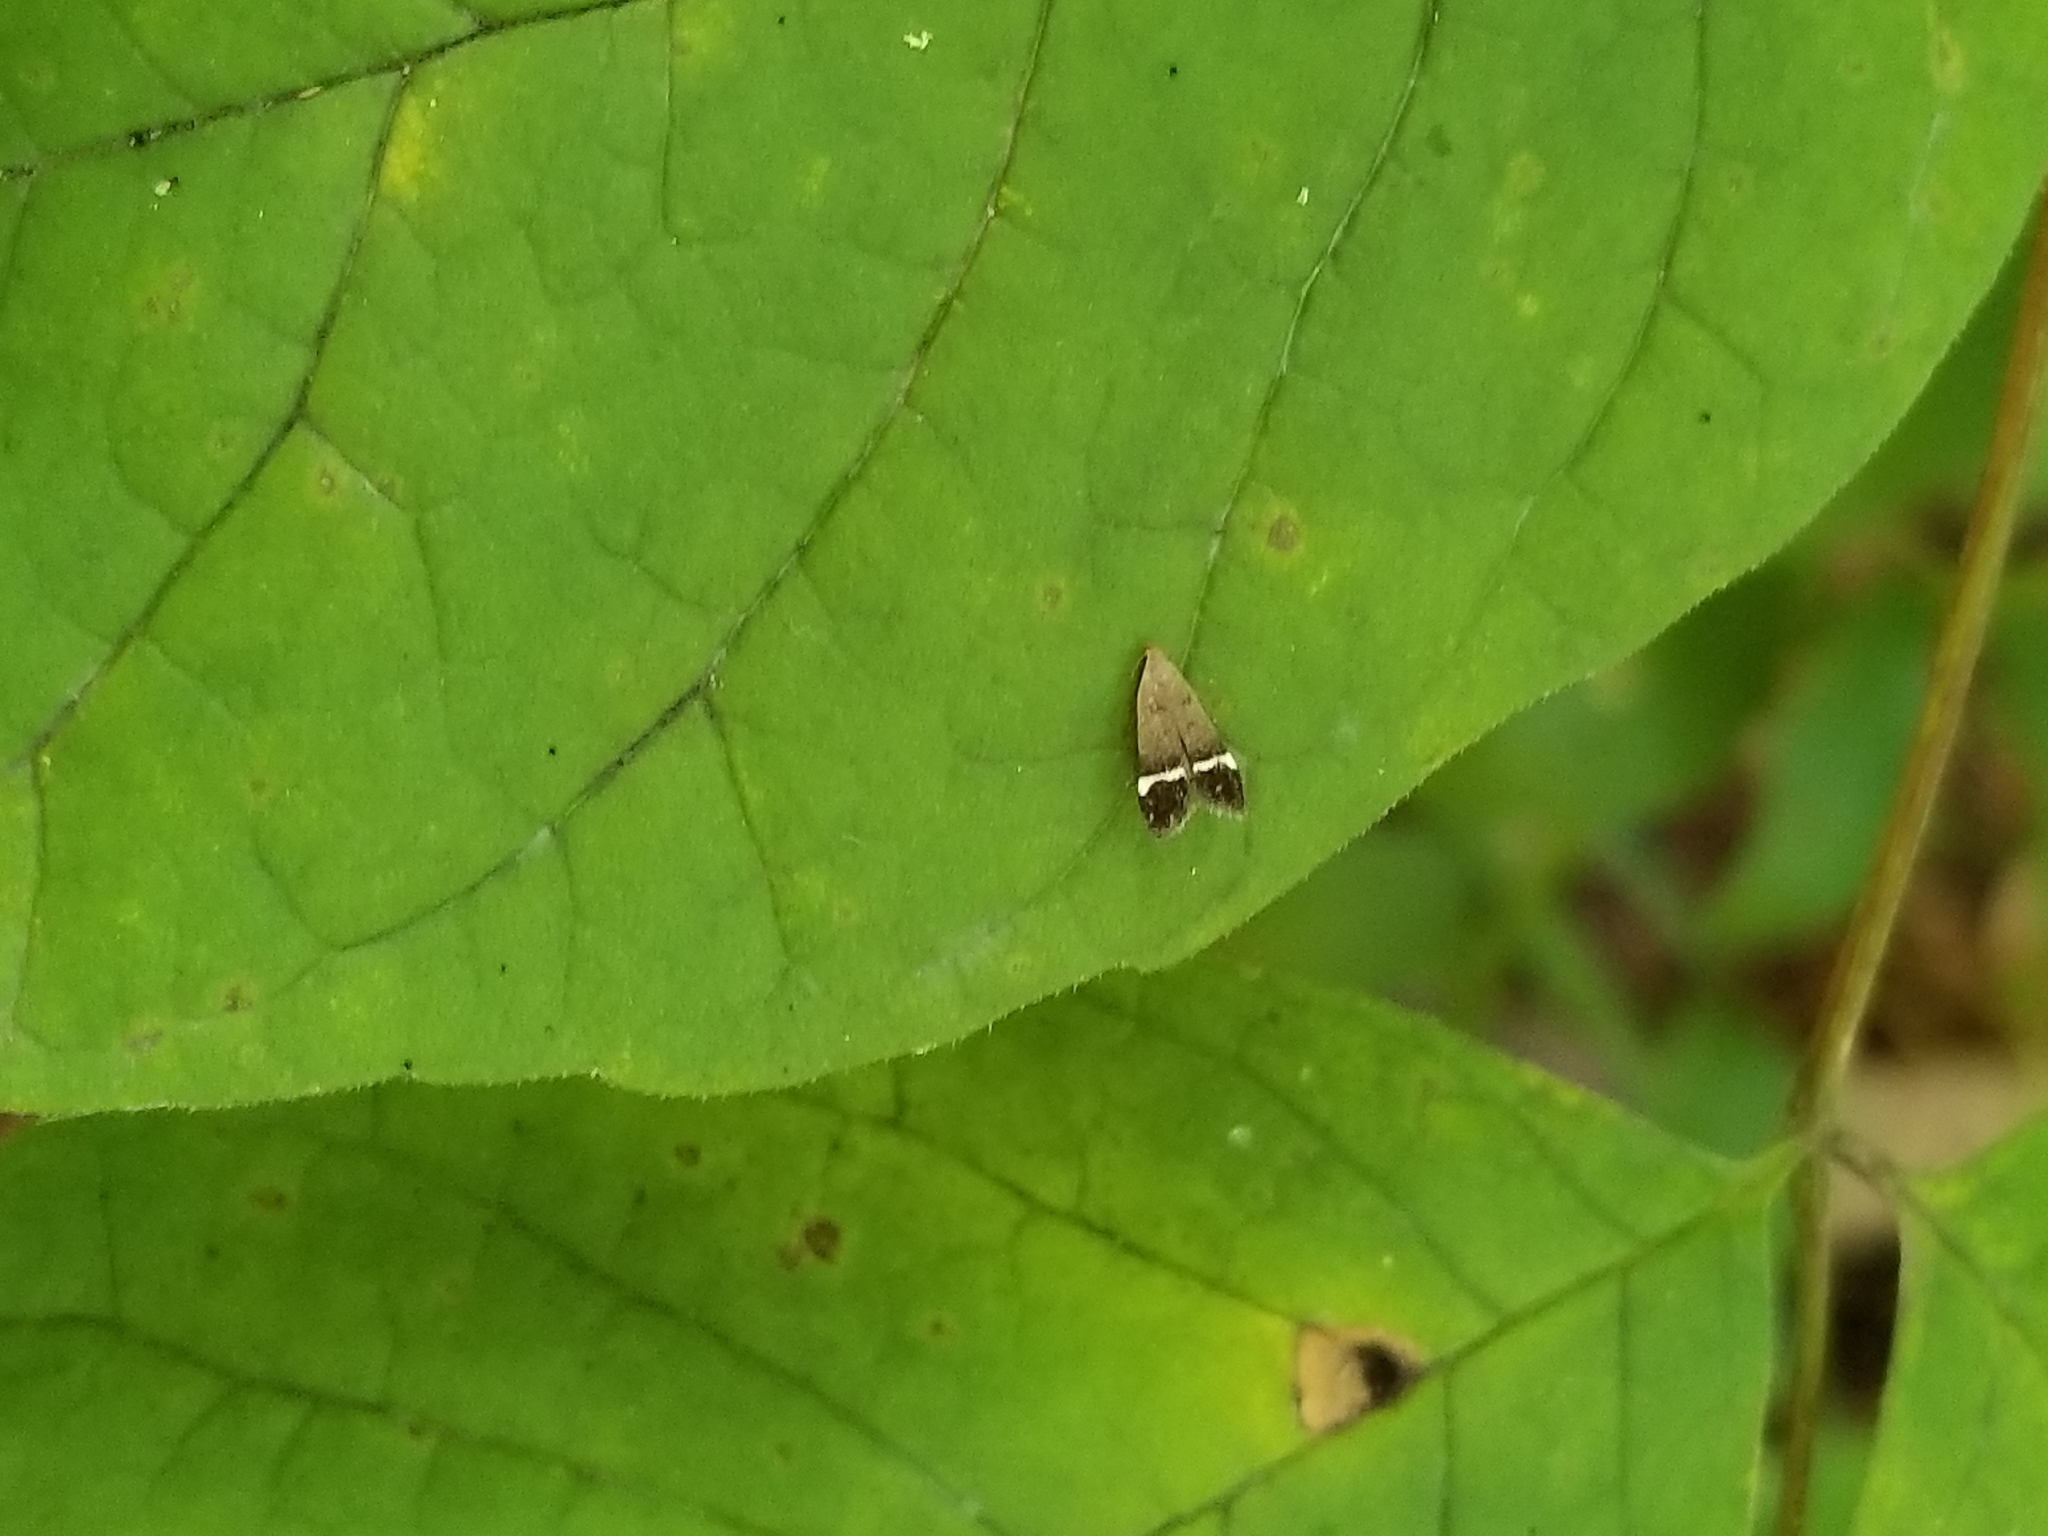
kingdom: Animalia
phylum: Arthropoda
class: Insecta
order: Lepidoptera
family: Gelechiidae
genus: Anacampsis
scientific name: Anacampsis agrimoniella
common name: Agrimony anacampsis moth
